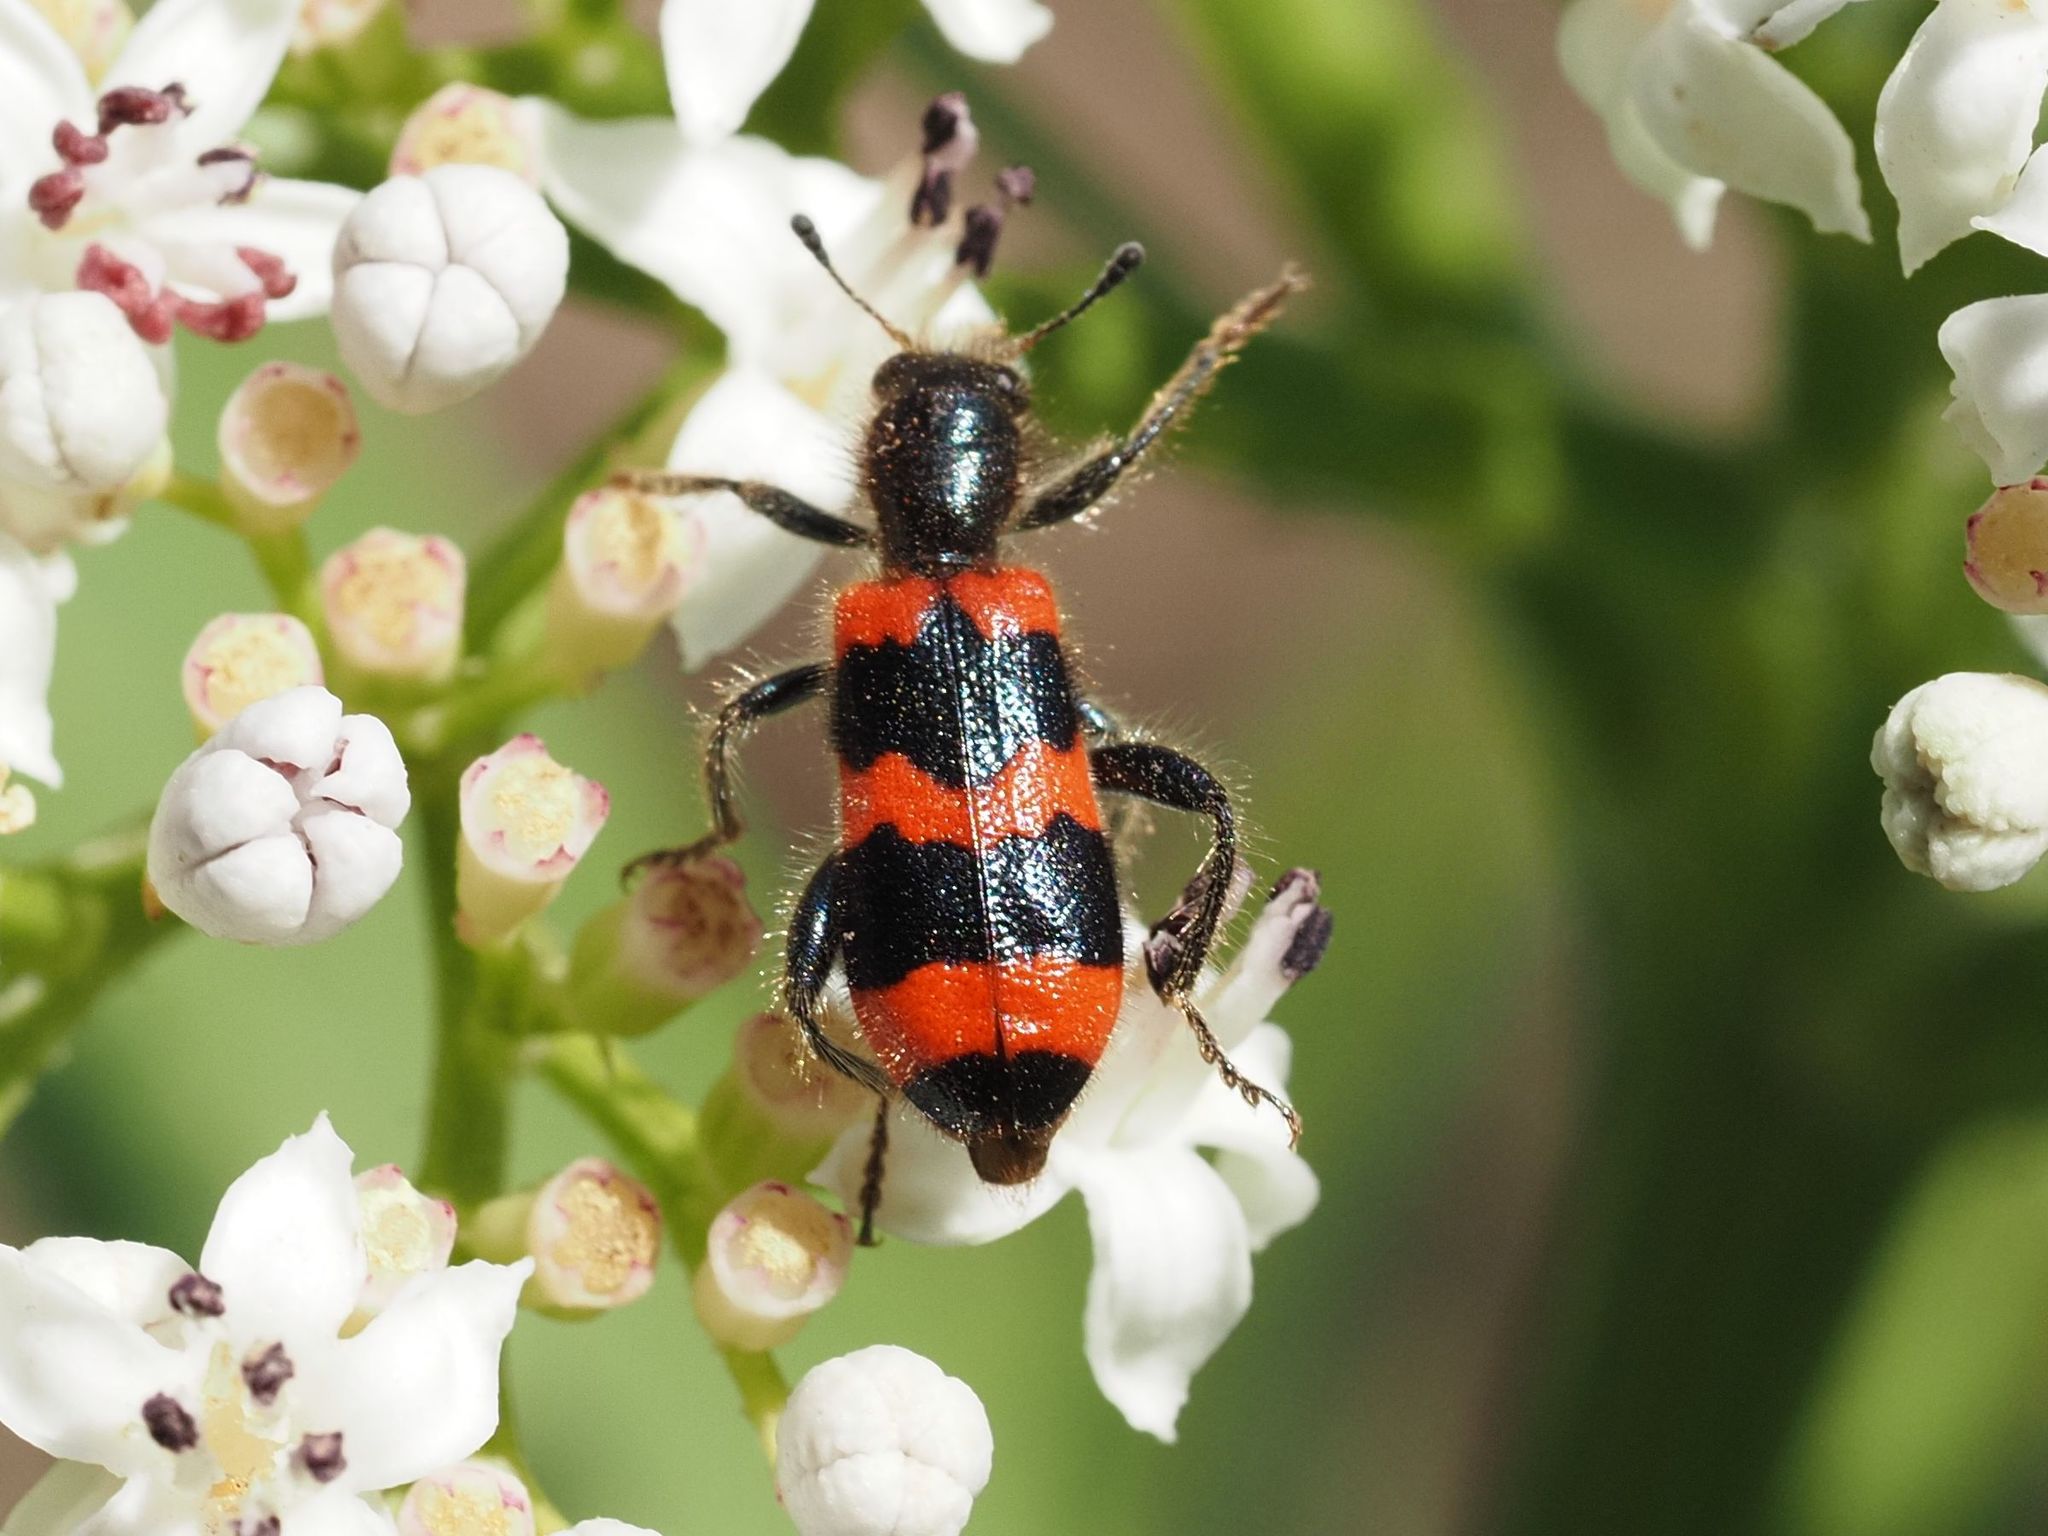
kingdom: Animalia
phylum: Arthropoda
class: Insecta
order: Coleoptera
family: Cleridae
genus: Trichodes
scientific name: Trichodes apiarius
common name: Bee-eating beetle
